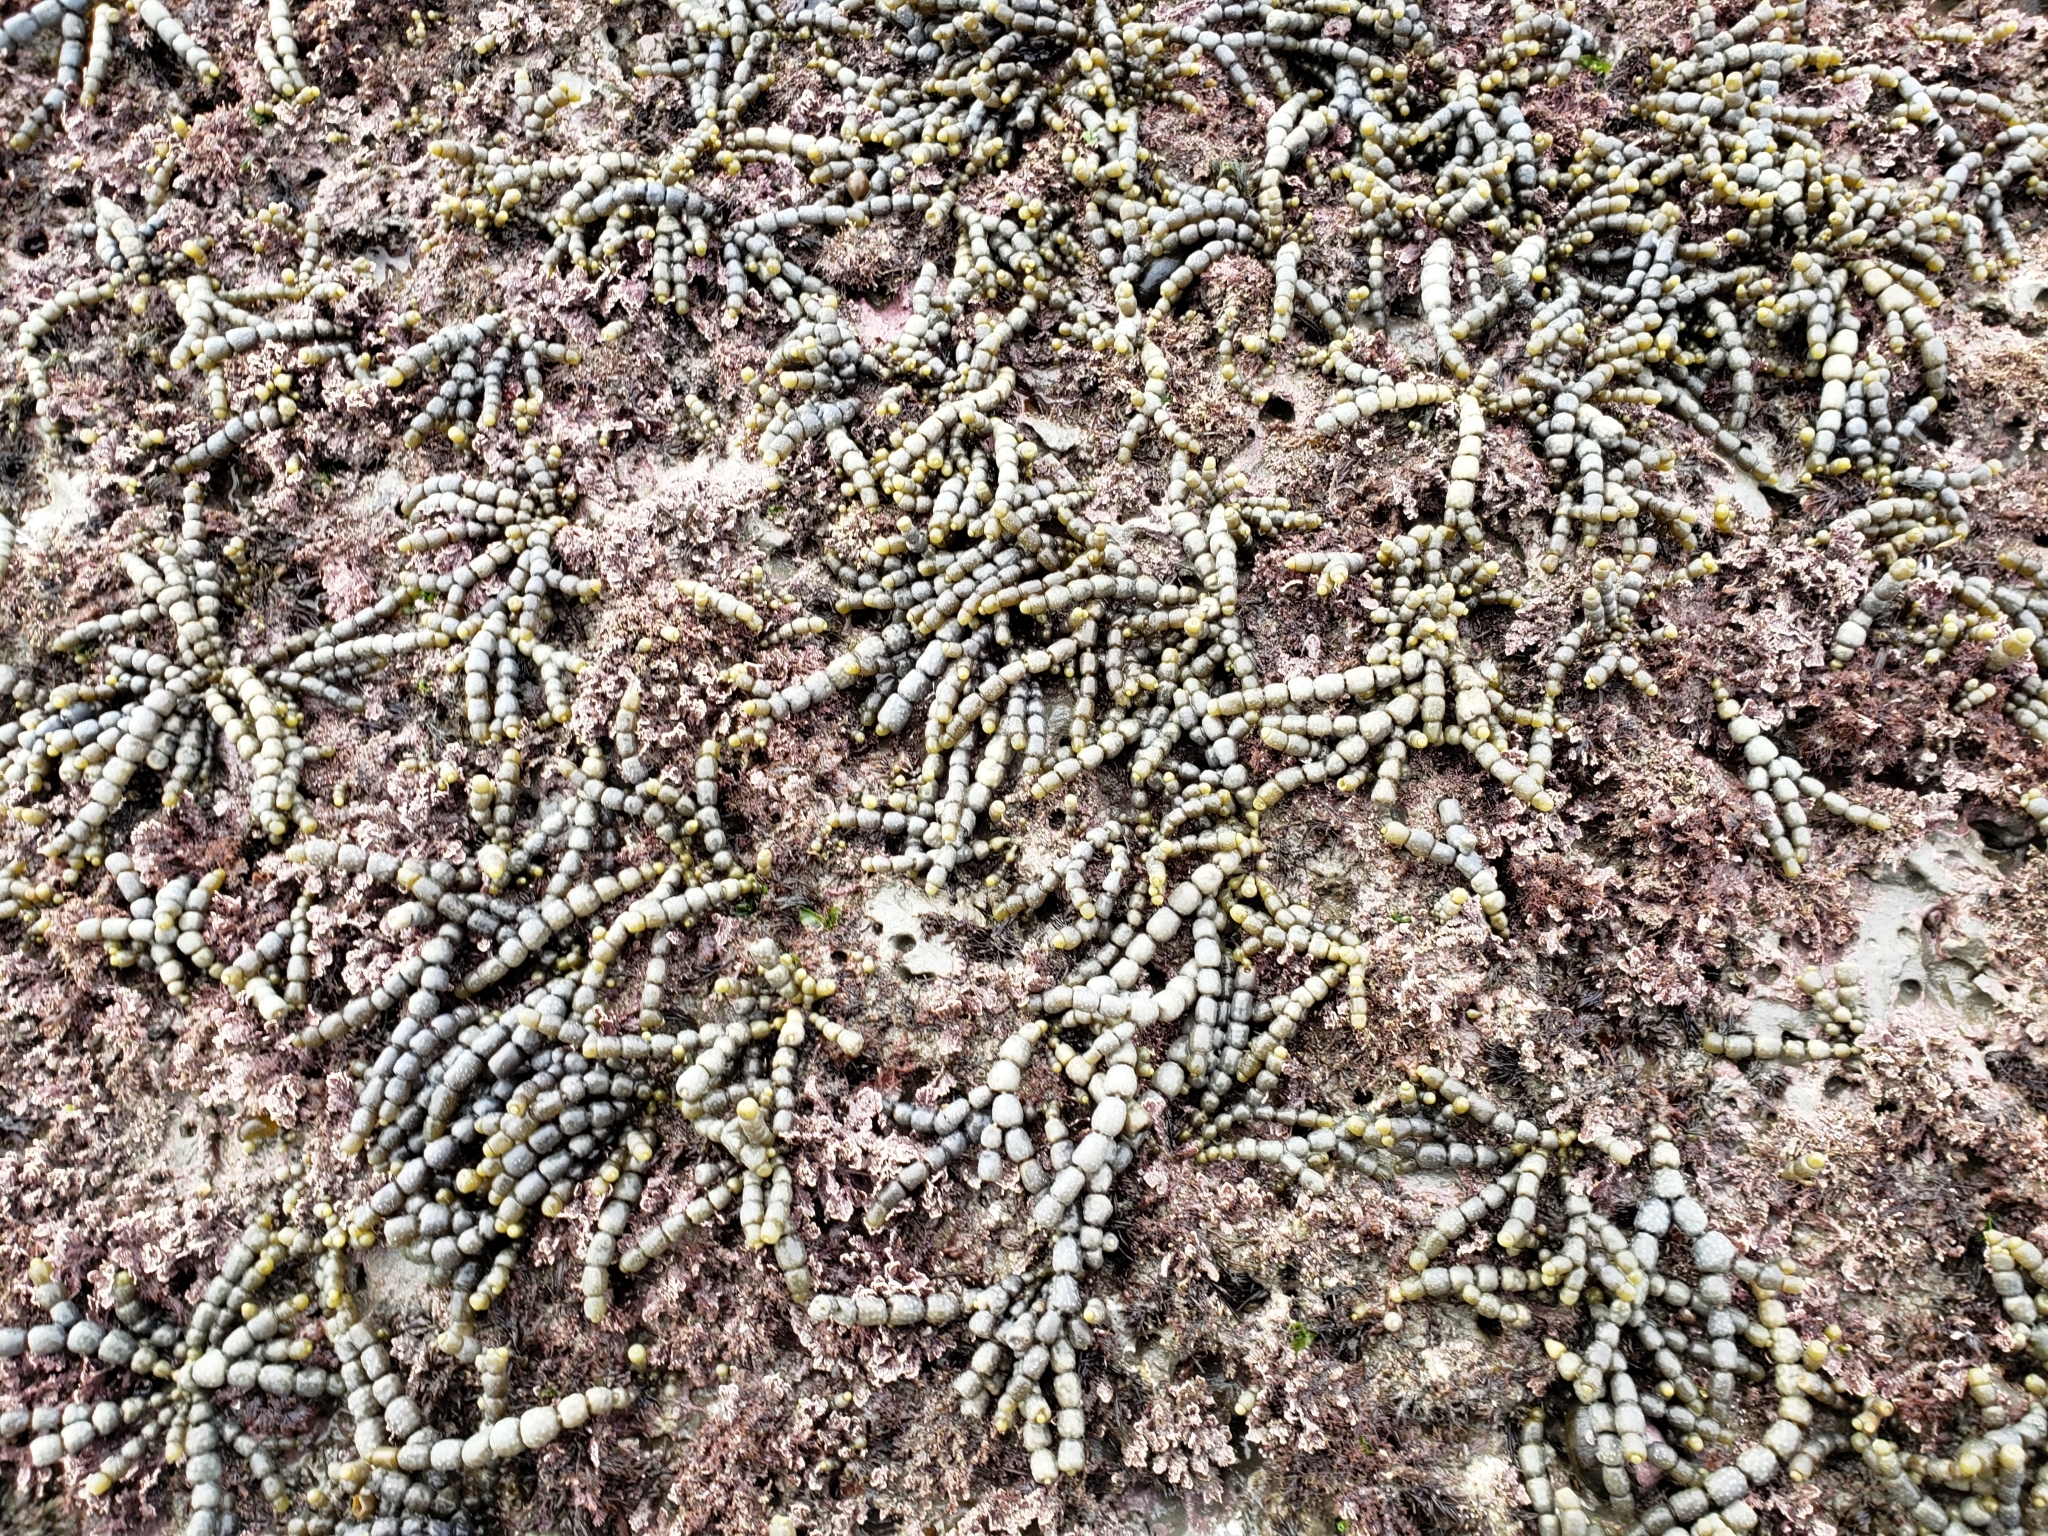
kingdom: Chromista
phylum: Ochrophyta
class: Phaeophyceae
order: Fucales
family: Hormosiraceae
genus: Hormosira
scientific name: Hormosira banksii
